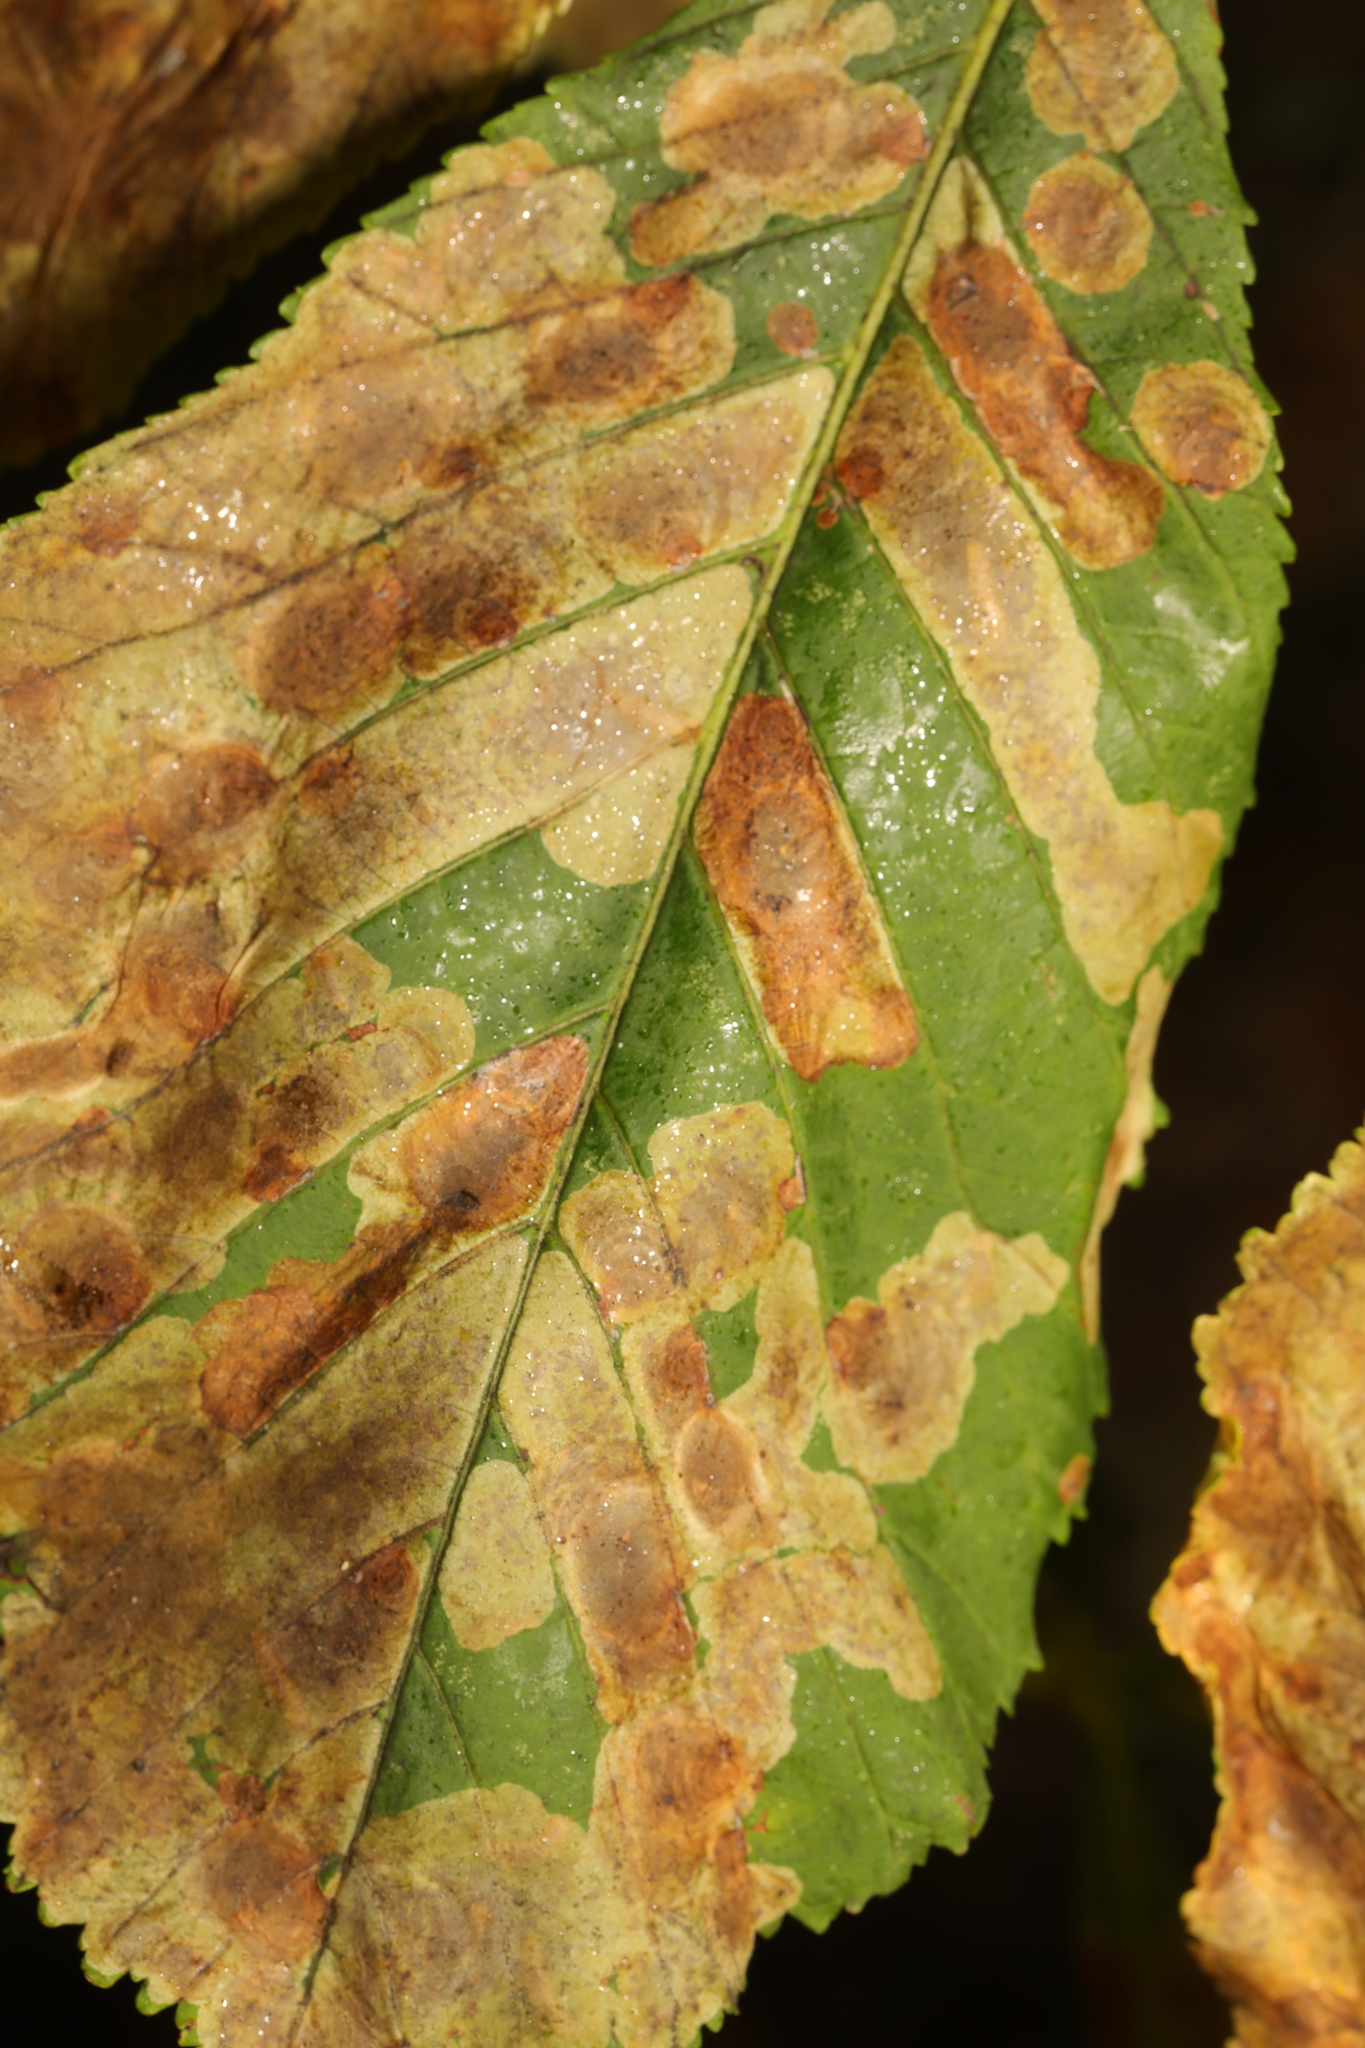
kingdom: Animalia
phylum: Arthropoda
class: Insecta
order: Lepidoptera
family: Gracillariidae
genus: Cameraria
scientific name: Cameraria ohridella
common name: Horse-chestnut leaf-miner
